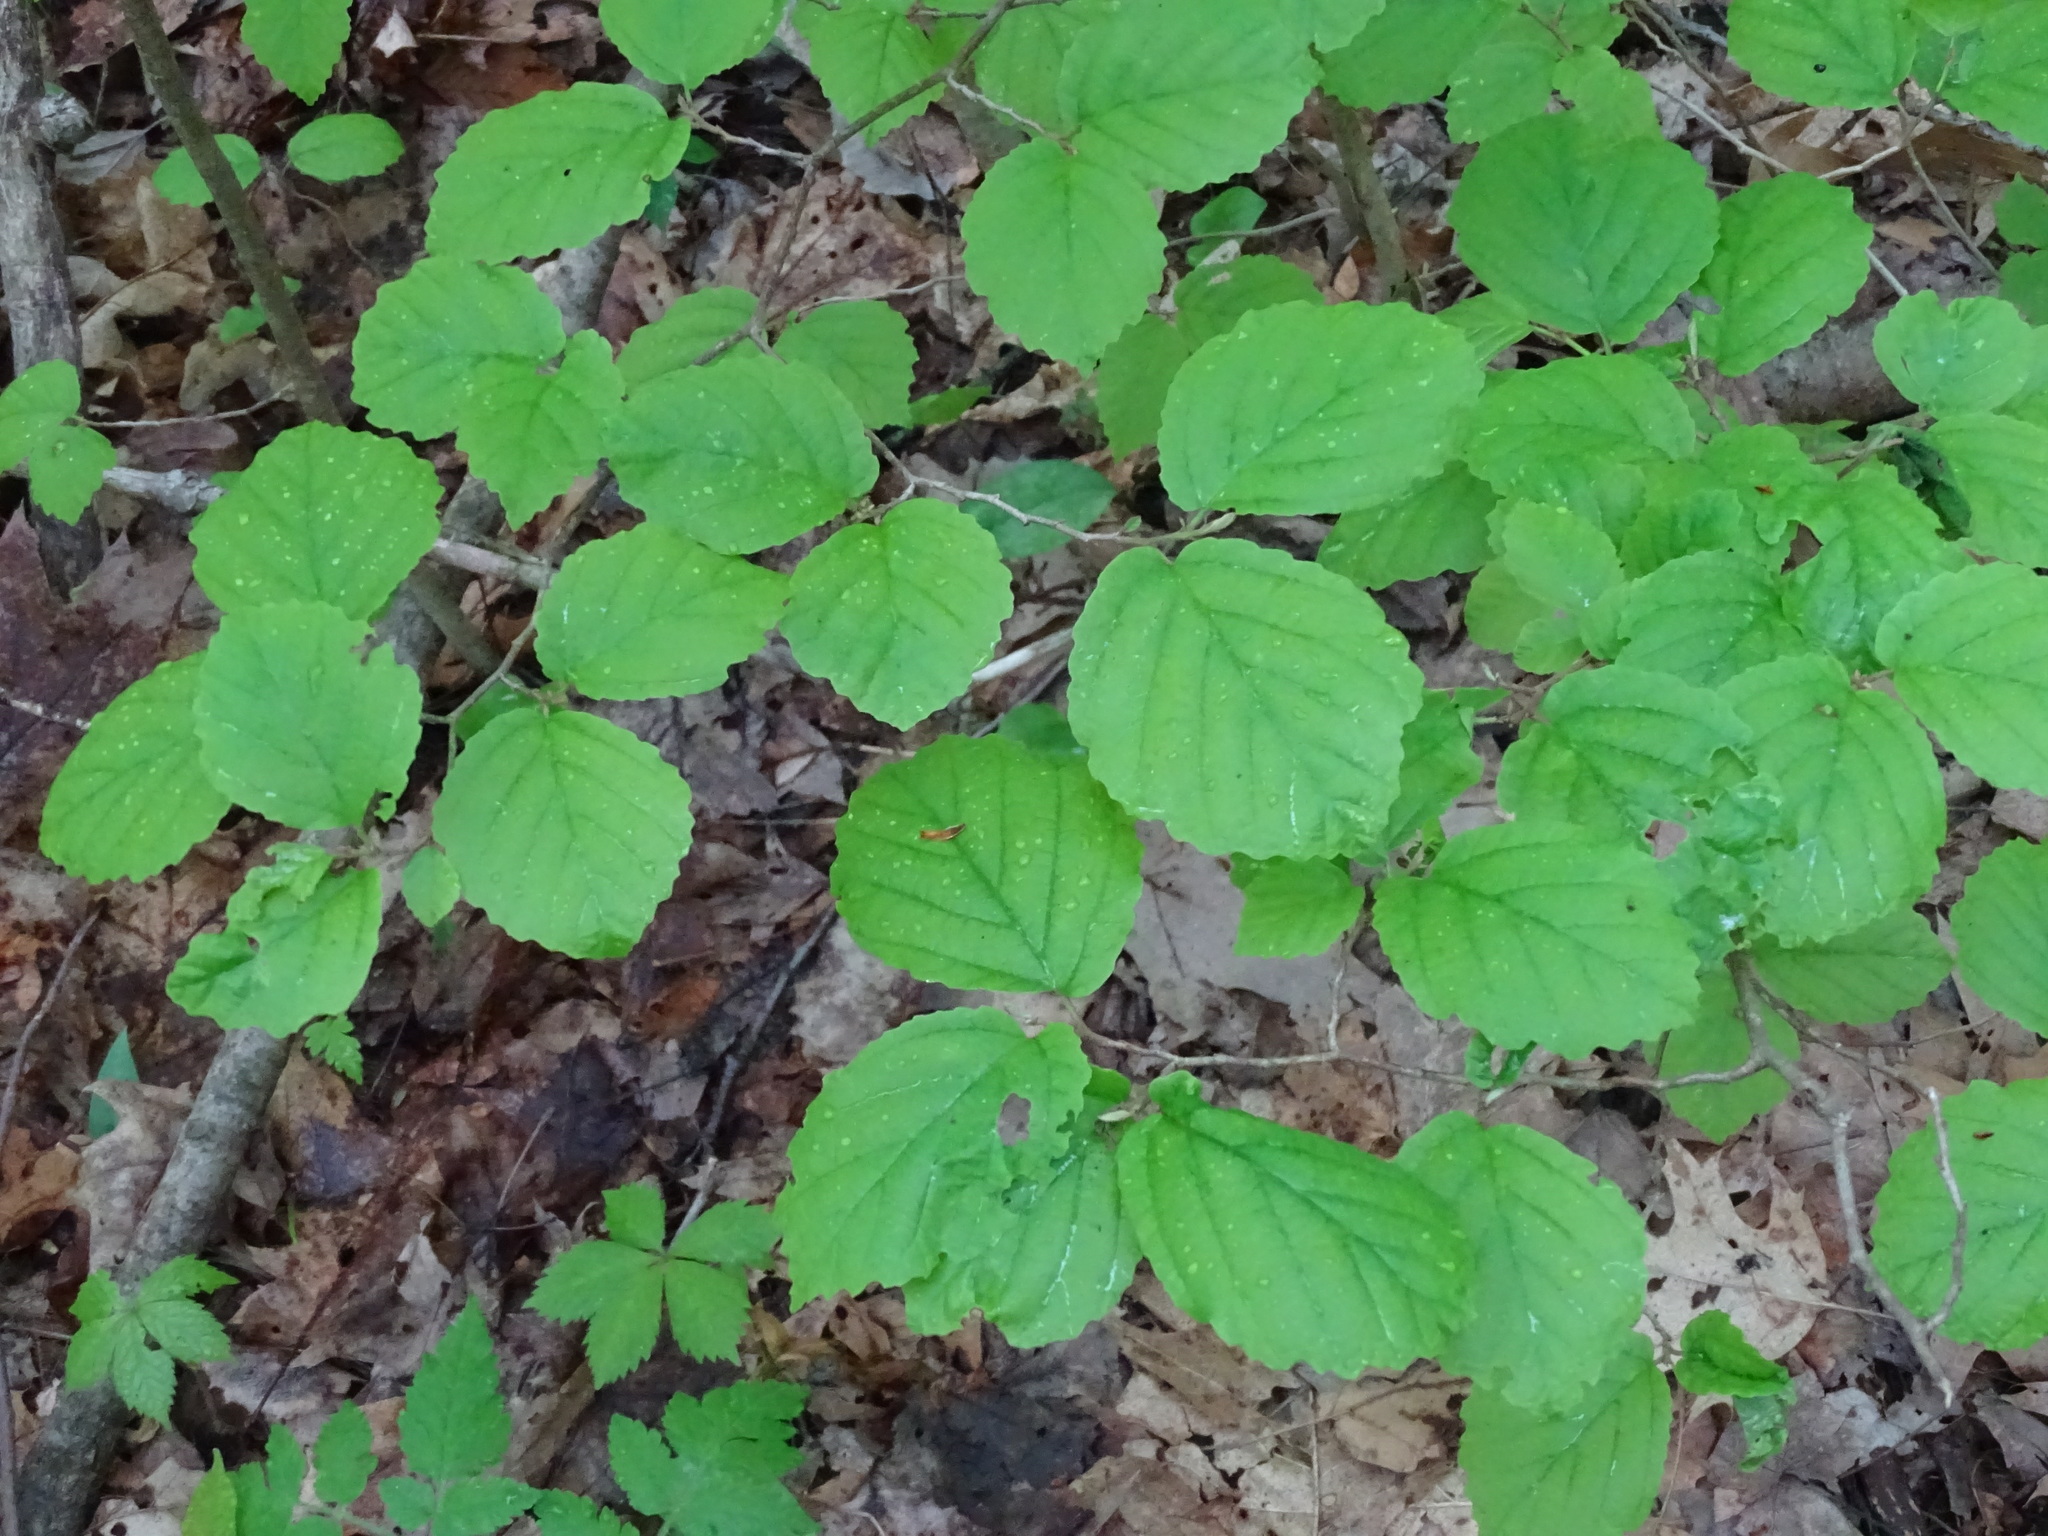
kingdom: Plantae
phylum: Tracheophyta
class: Magnoliopsida
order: Saxifragales
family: Hamamelidaceae
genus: Hamamelis
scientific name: Hamamelis virginiana
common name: Witch-hazel
